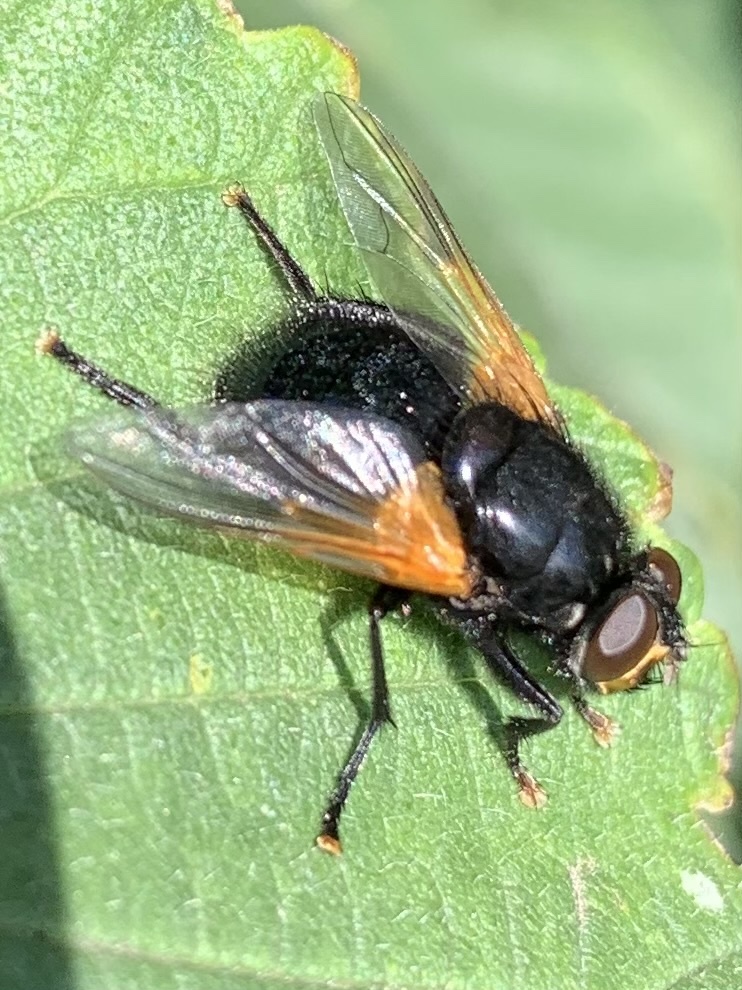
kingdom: Animalia
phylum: Arthropoda
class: Insecta
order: Diptera
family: Muscidae
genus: Mesembrina
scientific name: Mesembrina meridiana
